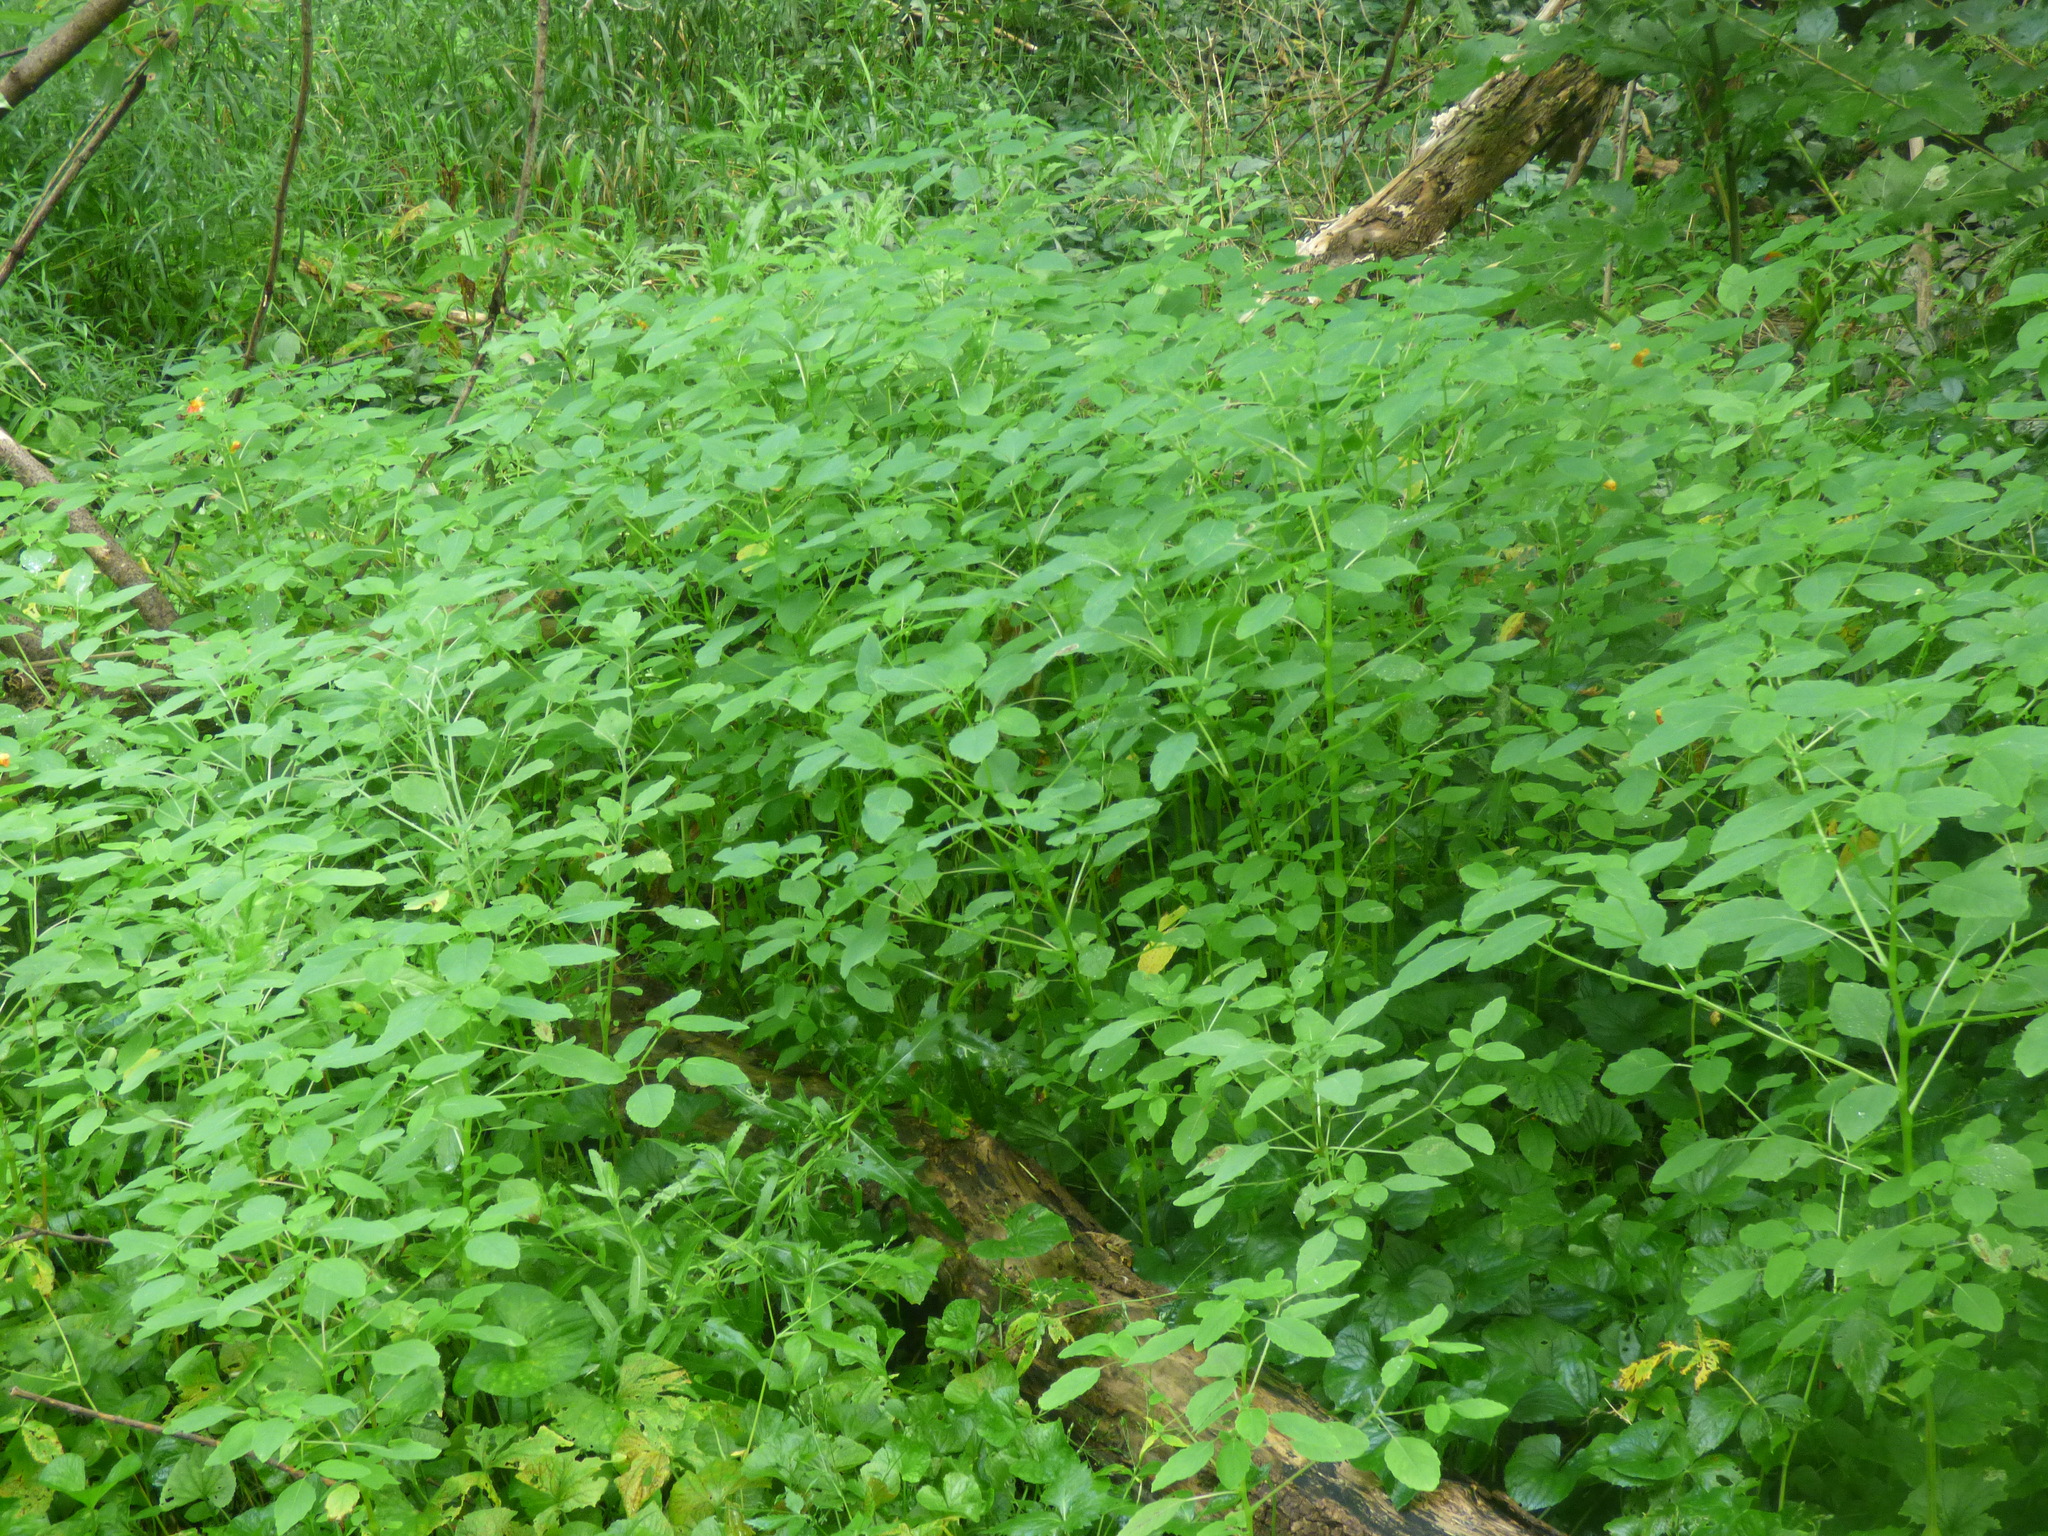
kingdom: Plantae
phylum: Tracheophyta
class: Magnoliopsida
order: Ericales
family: Balsaminaceae
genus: Impatiens
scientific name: Impatiens capensis
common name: Orange balsam
